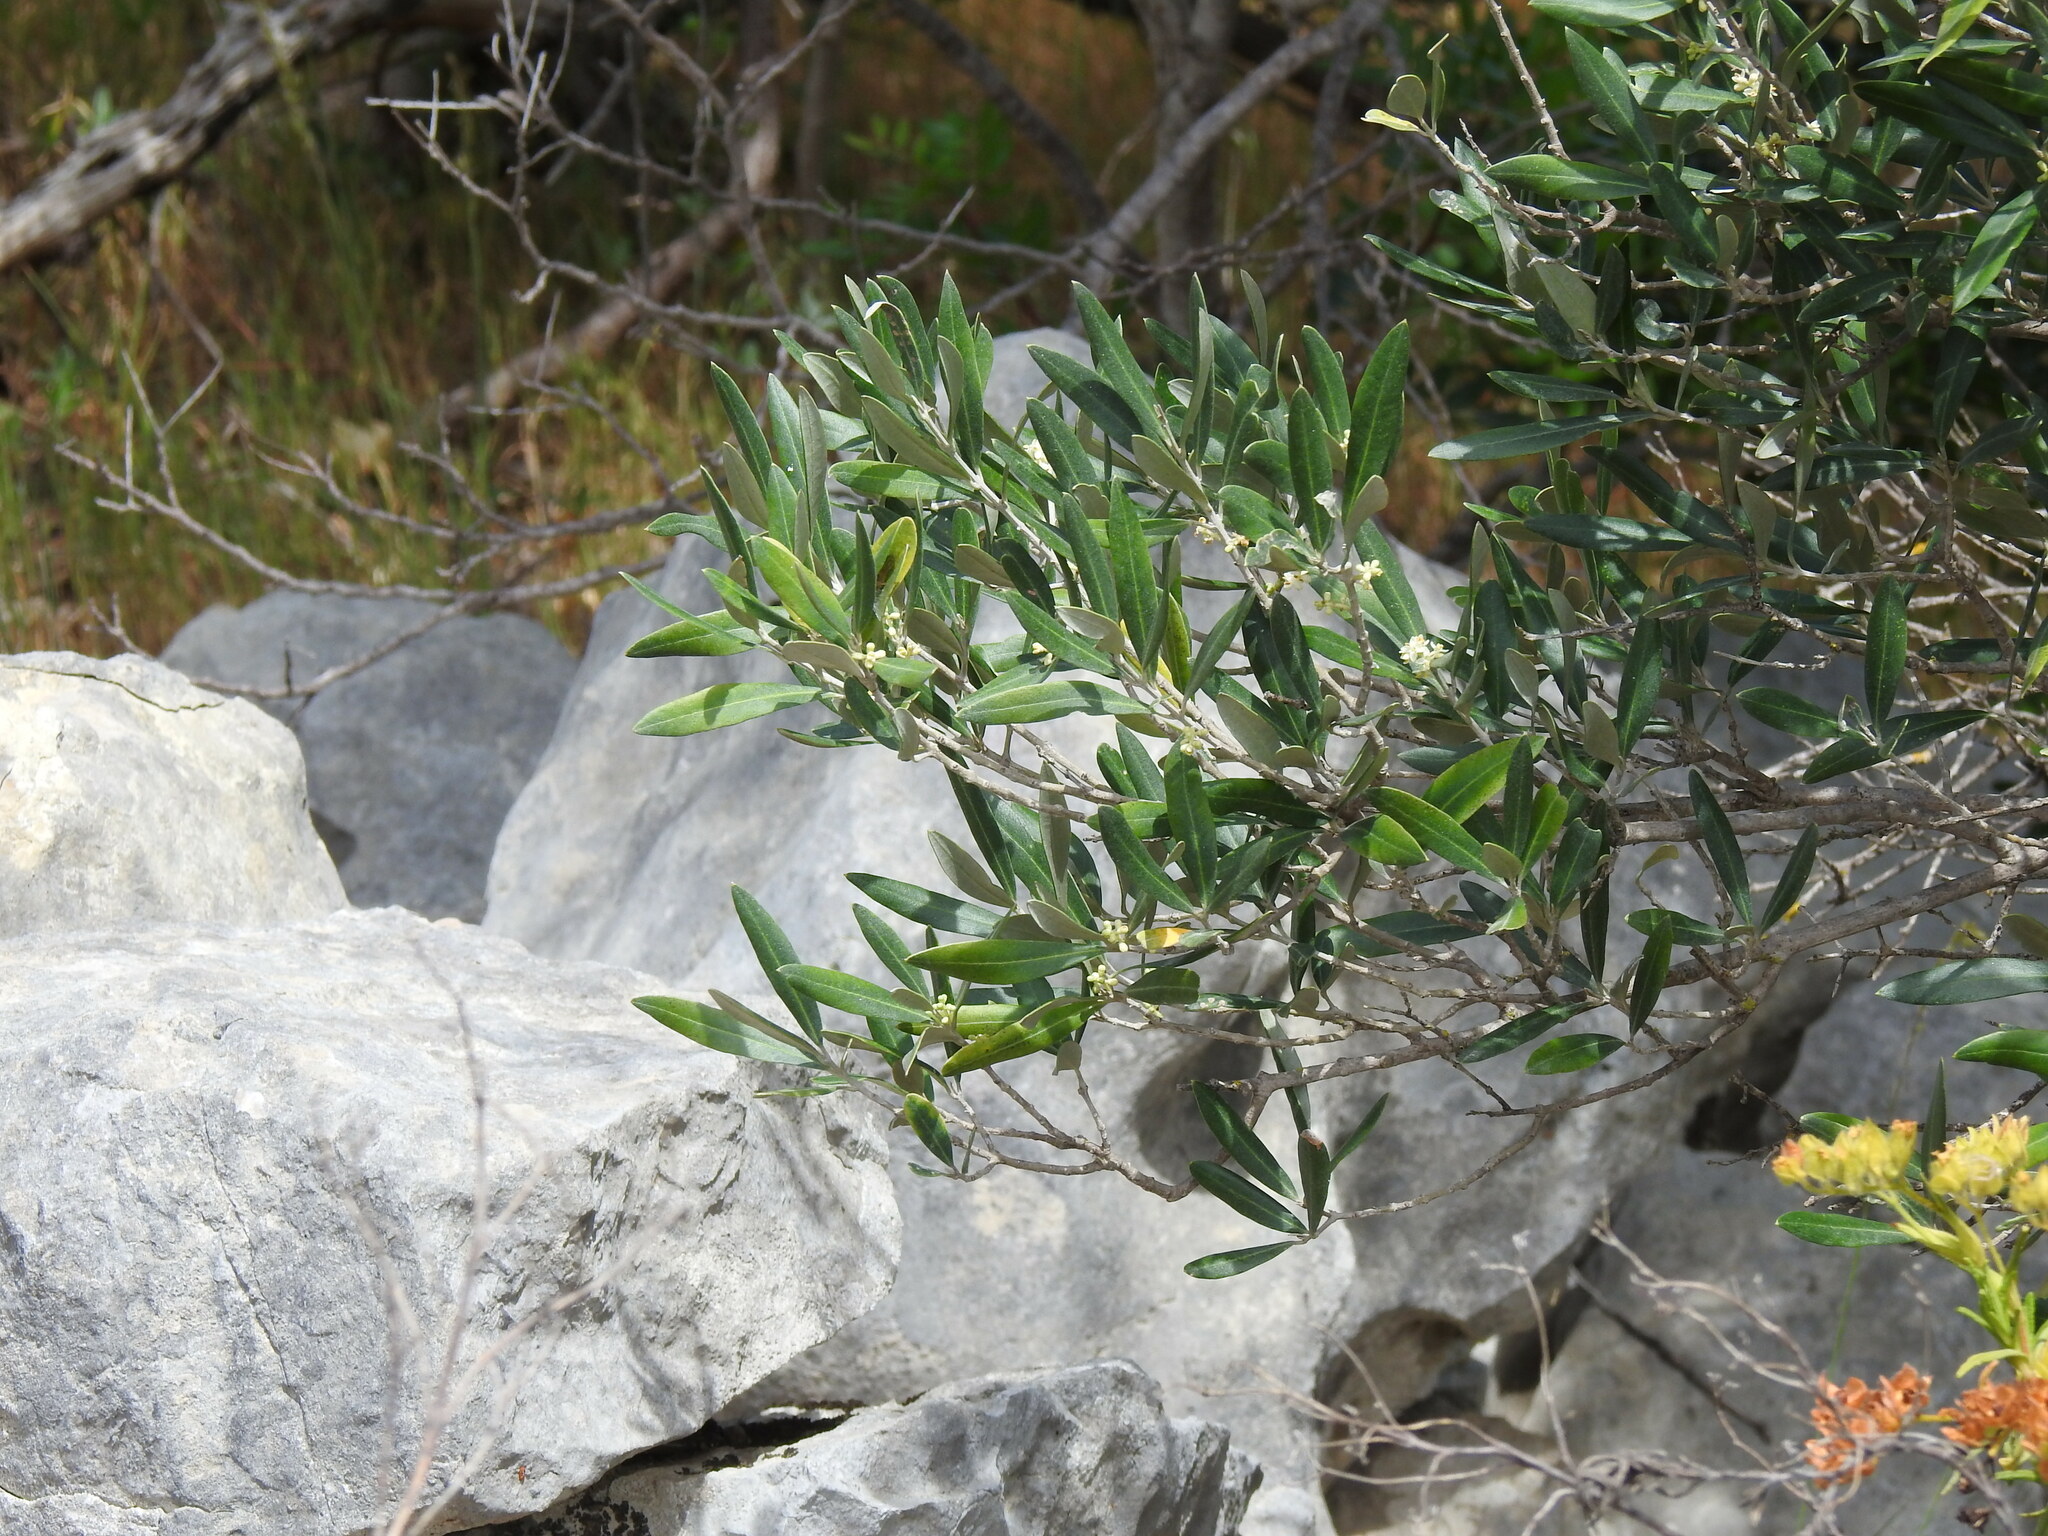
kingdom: Plantae
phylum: Tracheophyta
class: Magnoliopsida
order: Lamiales
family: Oleaceae
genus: Olea
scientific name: Olea europaea
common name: Olive
